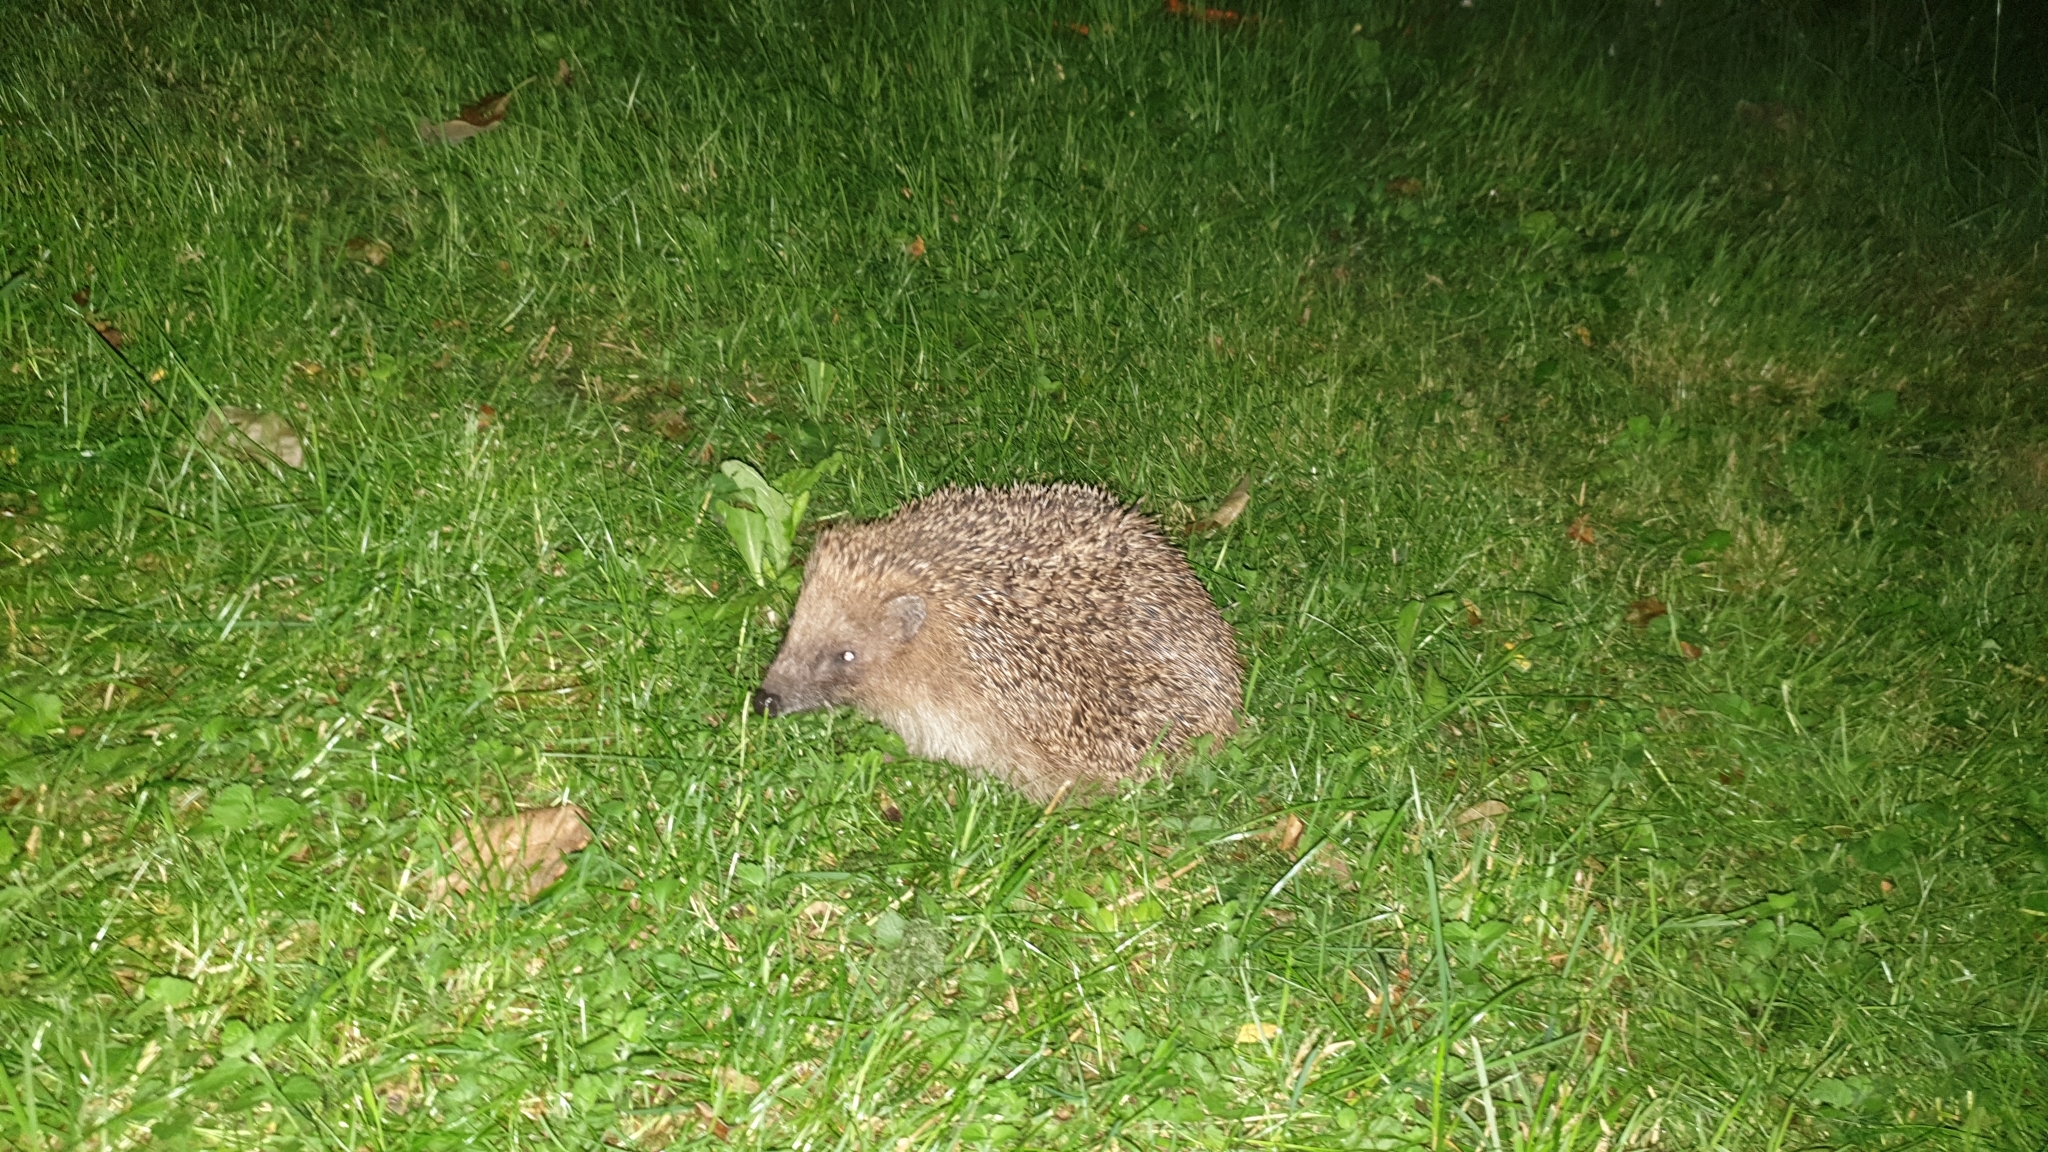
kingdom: Animalia
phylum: Chordata
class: Mammalia
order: Erinaceomorpha
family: Erinaceidae
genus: Erinaceus
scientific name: Erinaceus europaeus
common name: West european hedgehog
